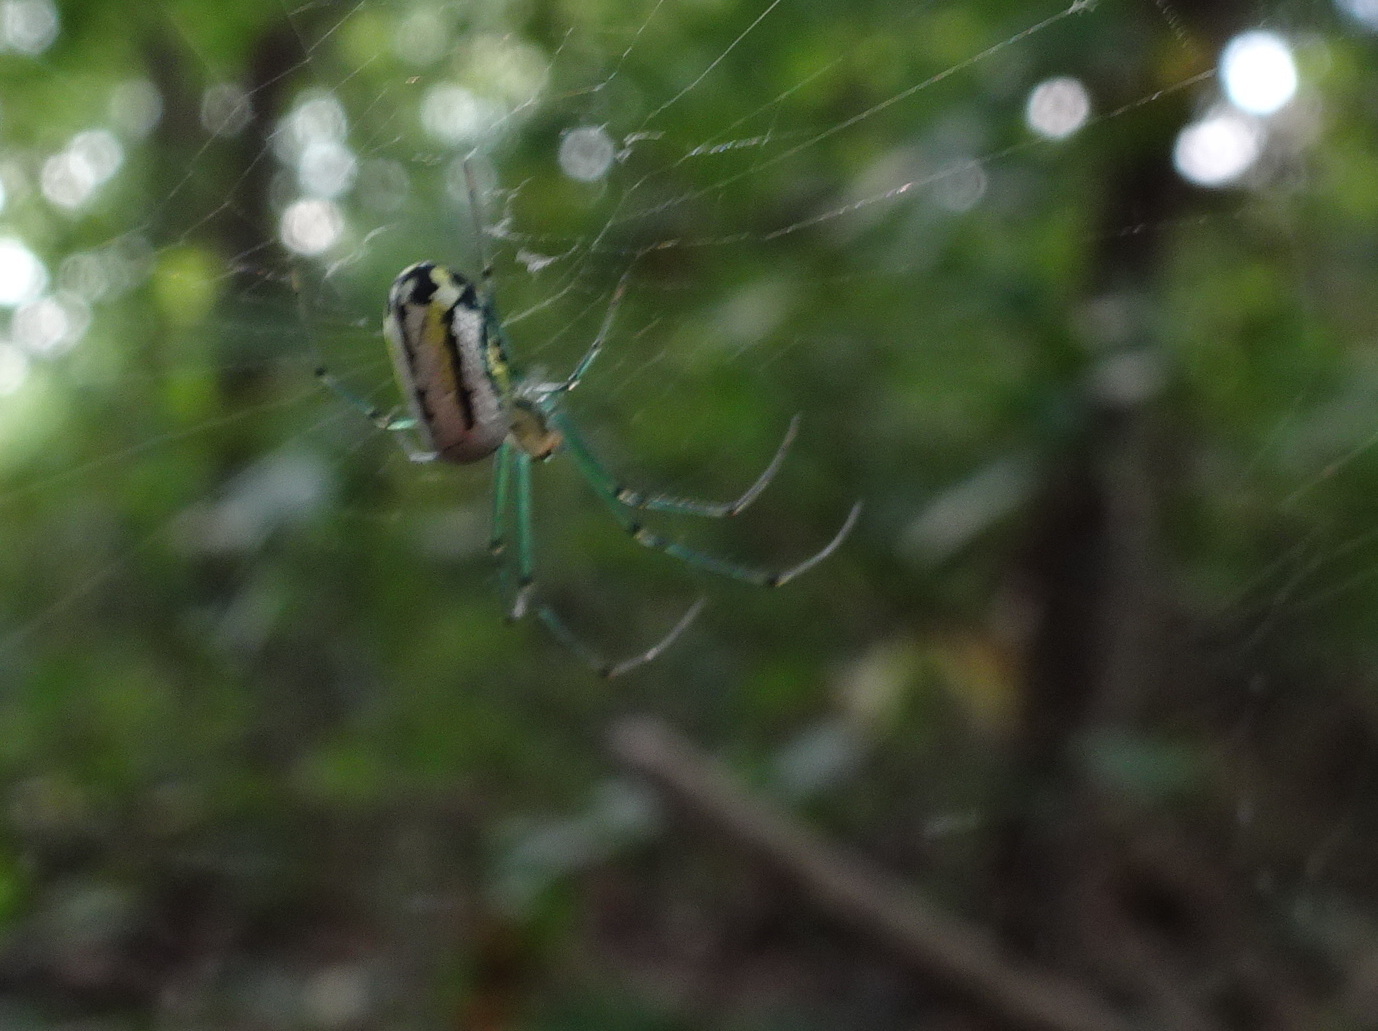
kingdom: Animalia
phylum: Arthropoda
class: Arachnida
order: Araneae
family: Tetragnathidae
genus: Leucauge
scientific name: Leucauge venusta
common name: Longjawed orb weavers
